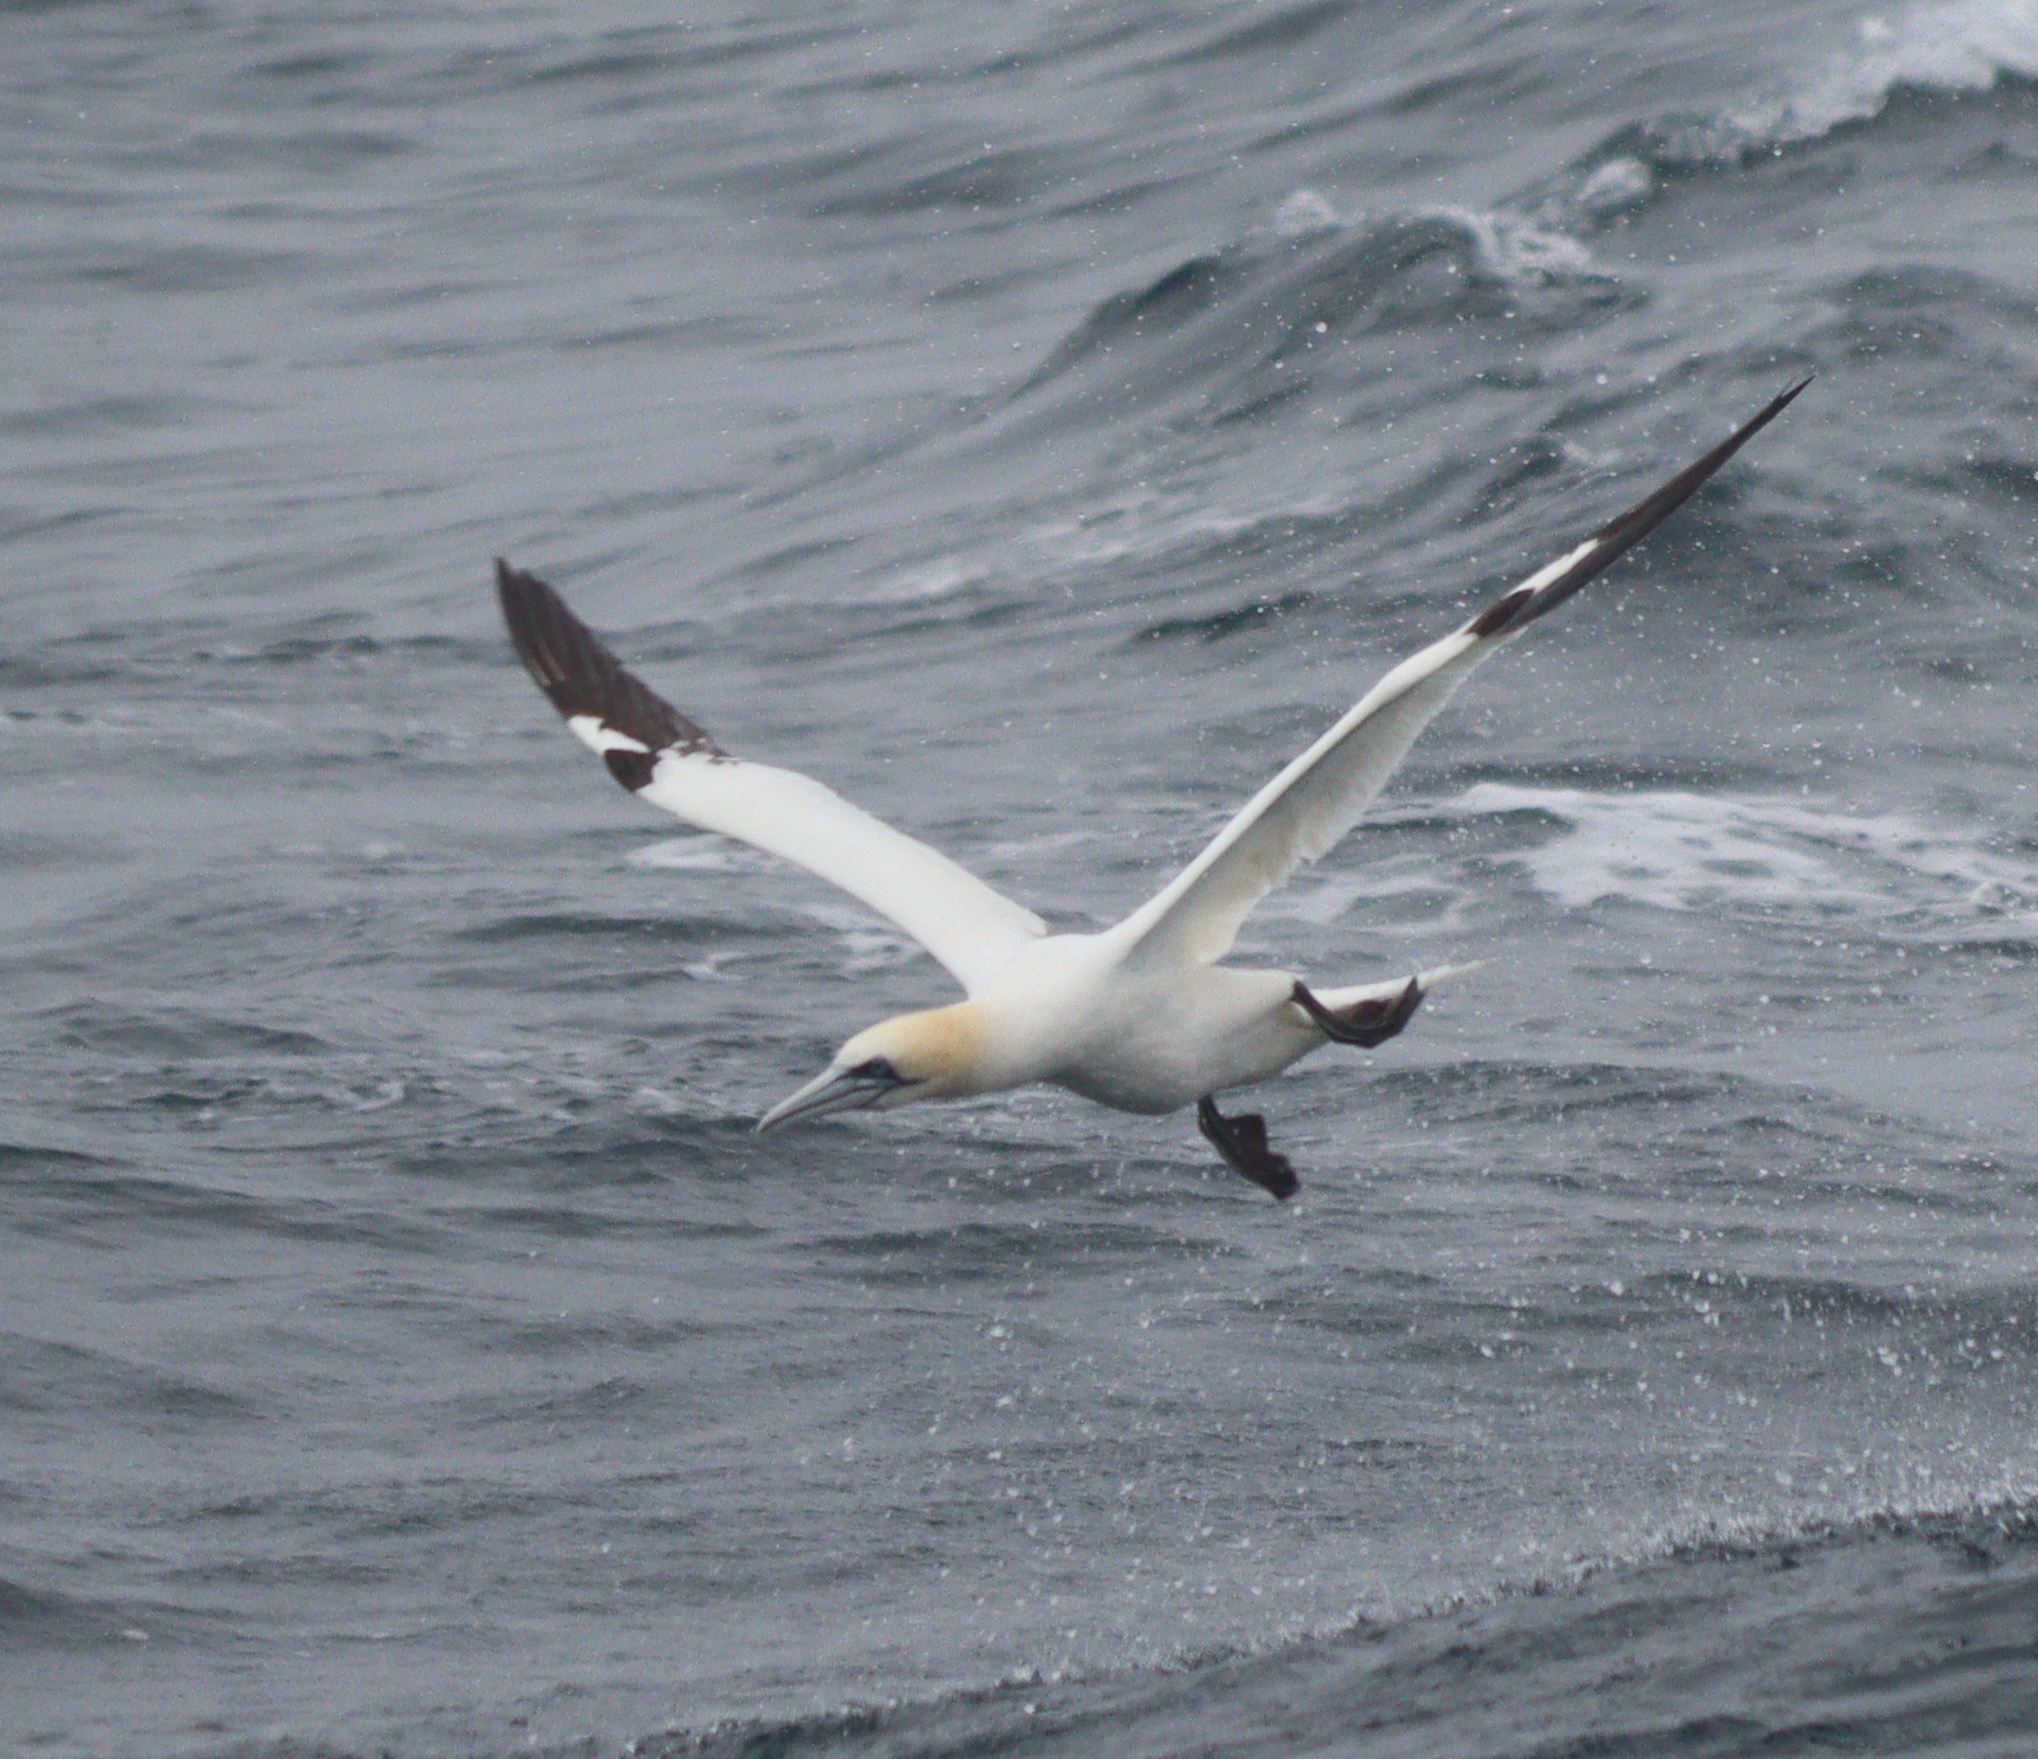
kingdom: Animalia
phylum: Chordata
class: Aves
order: Suliformes
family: Sulidae
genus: Morus
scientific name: Morus bassanus
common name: Northern gannet
